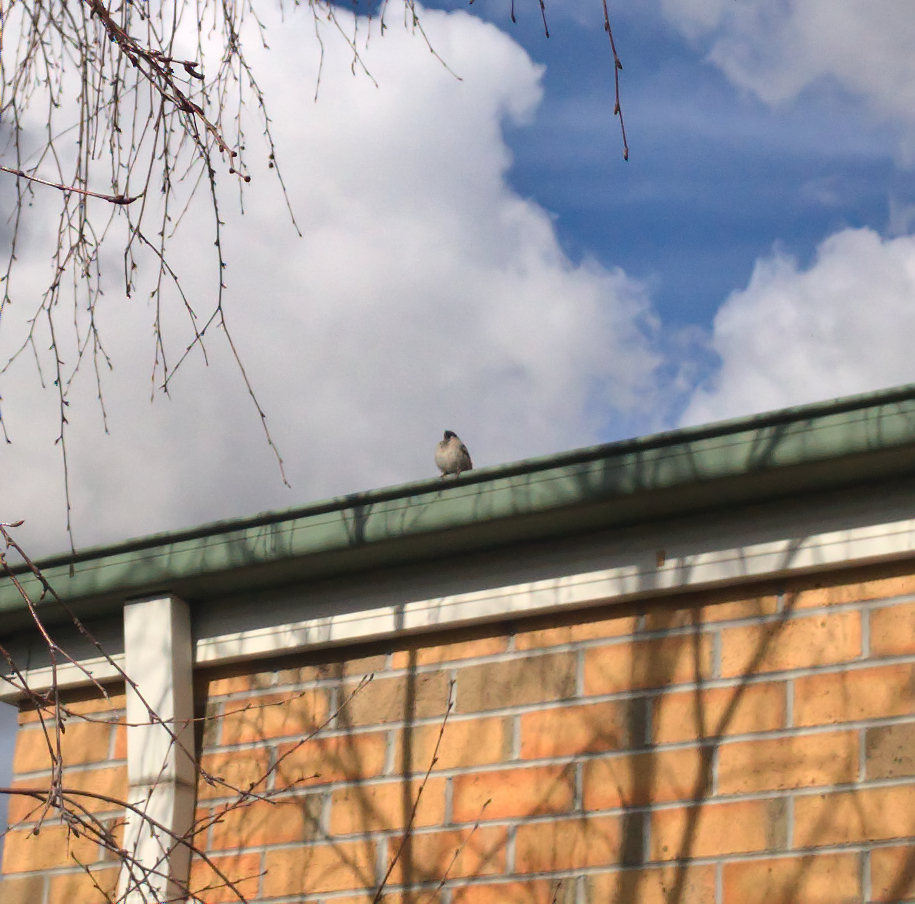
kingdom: Animalia
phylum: Chordata
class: Aves
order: Passeriformes
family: Passeridae
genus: Passer
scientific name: Passer domesticus
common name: House sparrow
